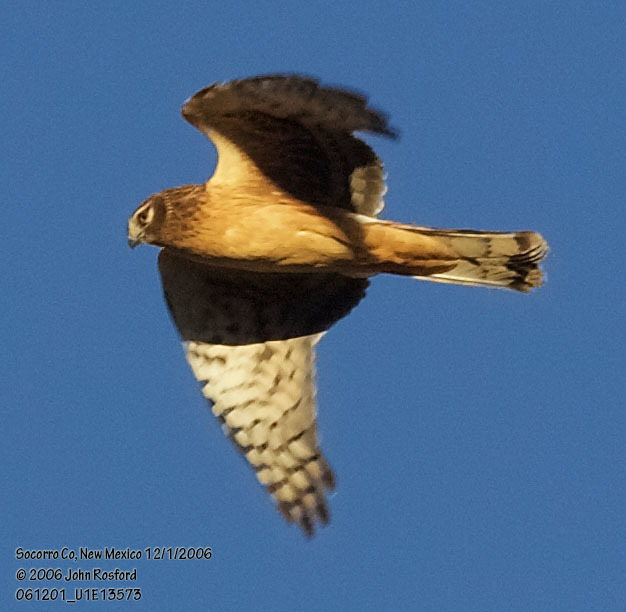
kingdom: Animalia
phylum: Chordata
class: Aves
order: Accipitriformes
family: Accipitridae
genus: Circus
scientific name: Circus cyaneus
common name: Hen harrier
